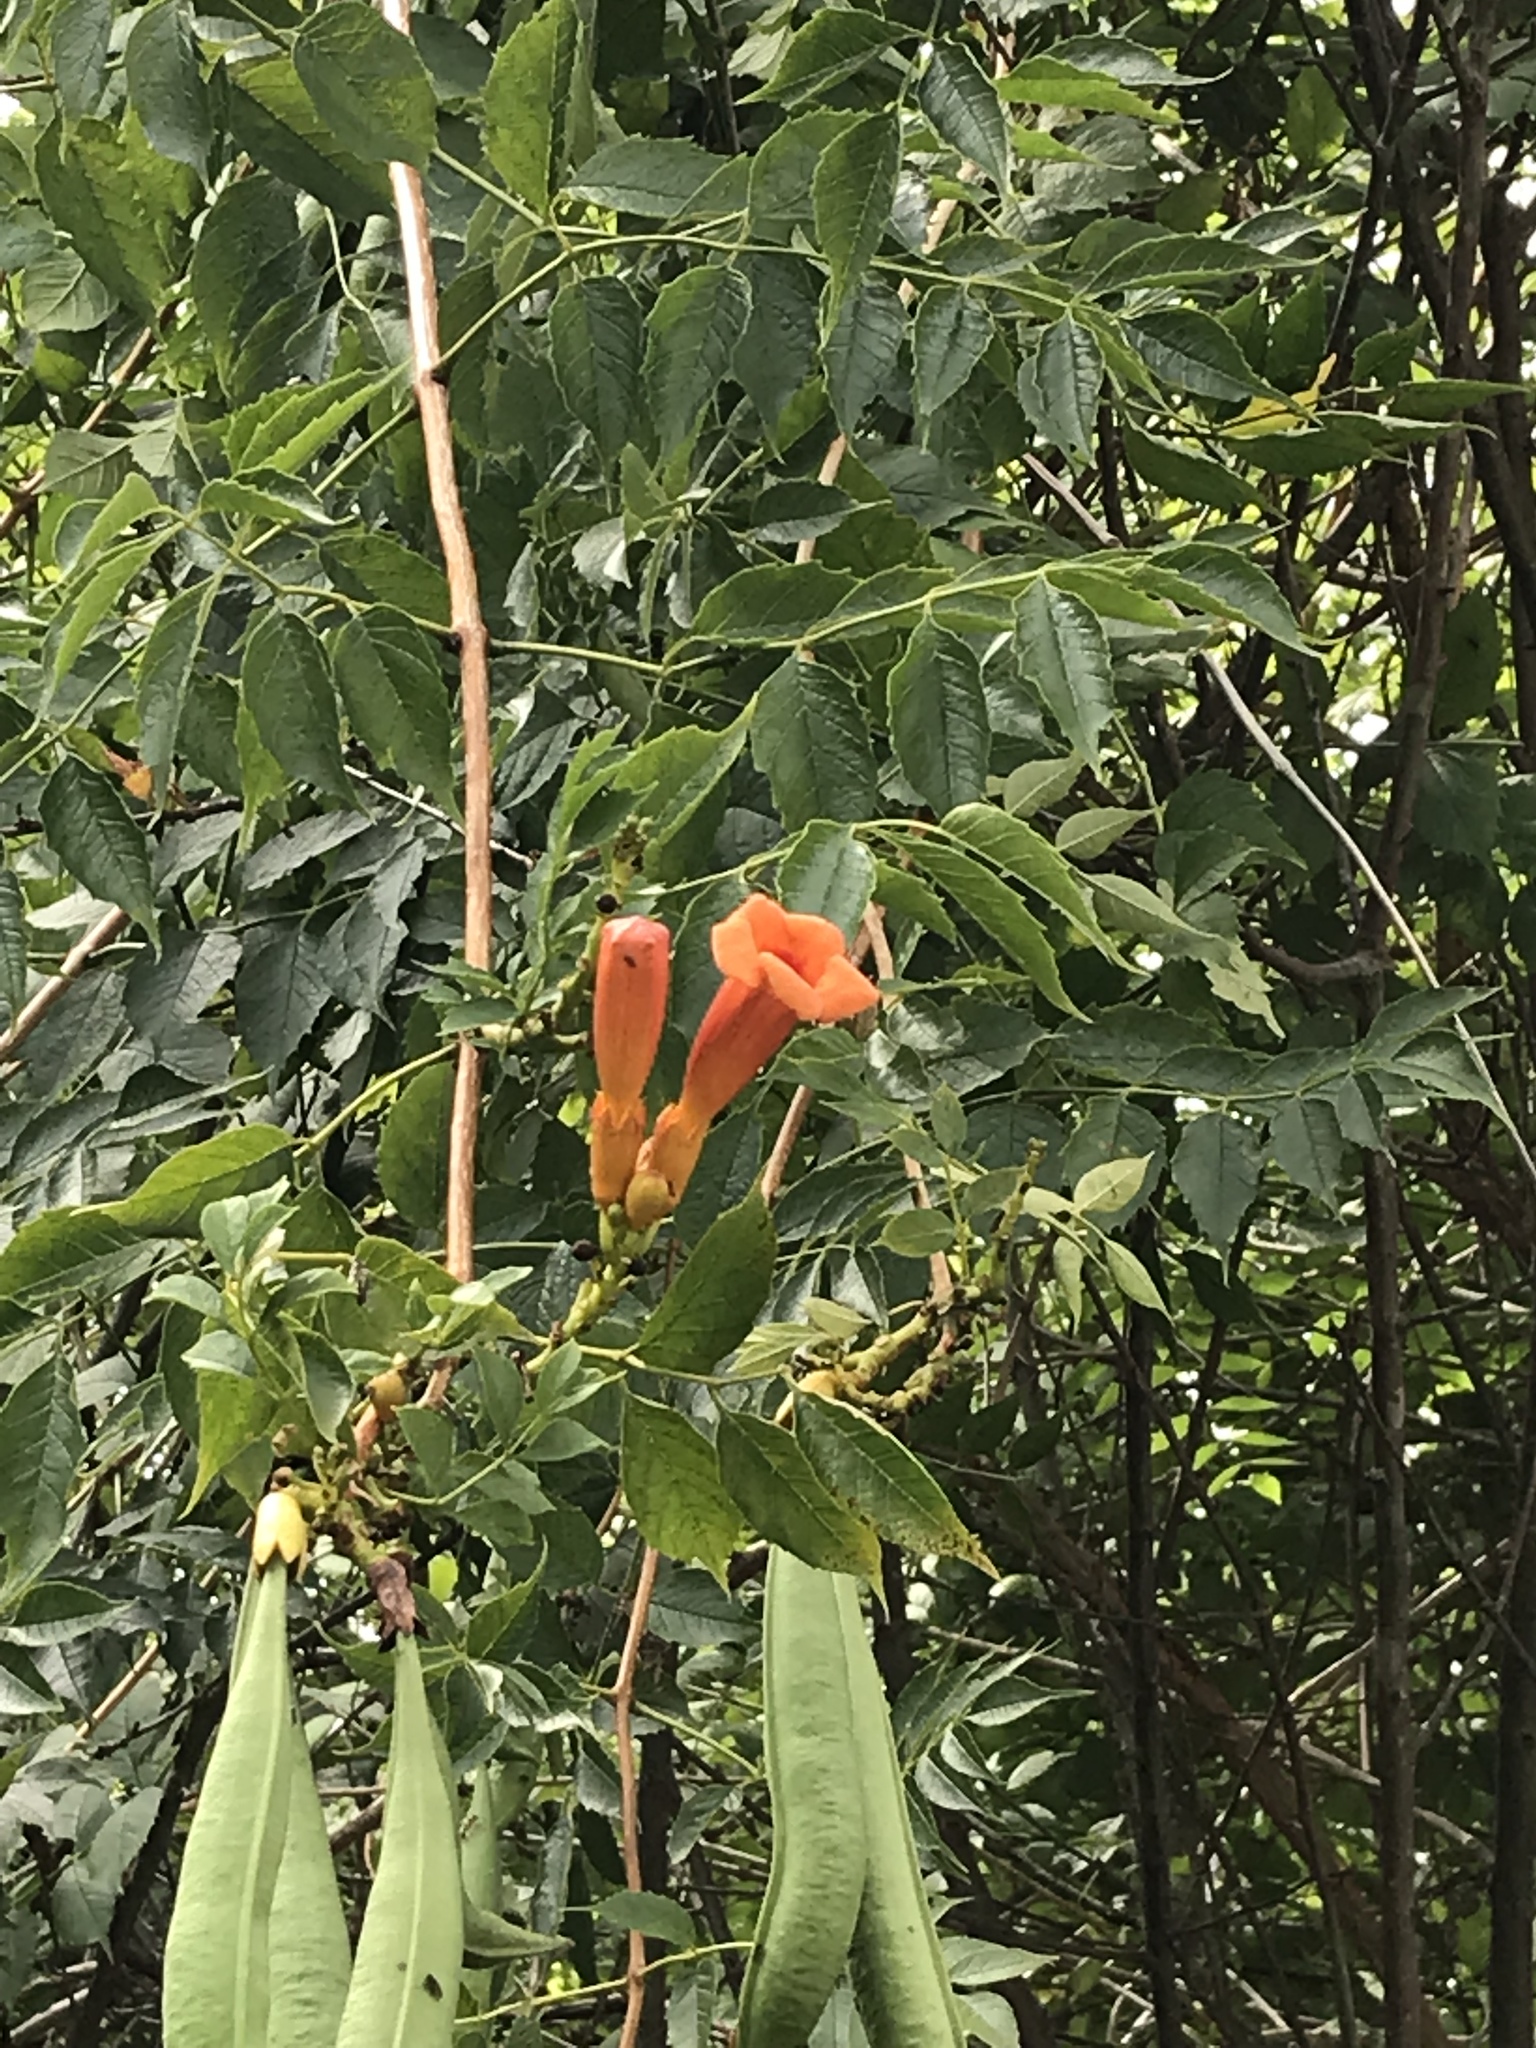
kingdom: Plantae
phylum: Tracheophyta
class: Magnoliopsida
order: Lamiales
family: Bignoniaceae
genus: Campsis
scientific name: Campsis radicans
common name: Trumpet-creeper
